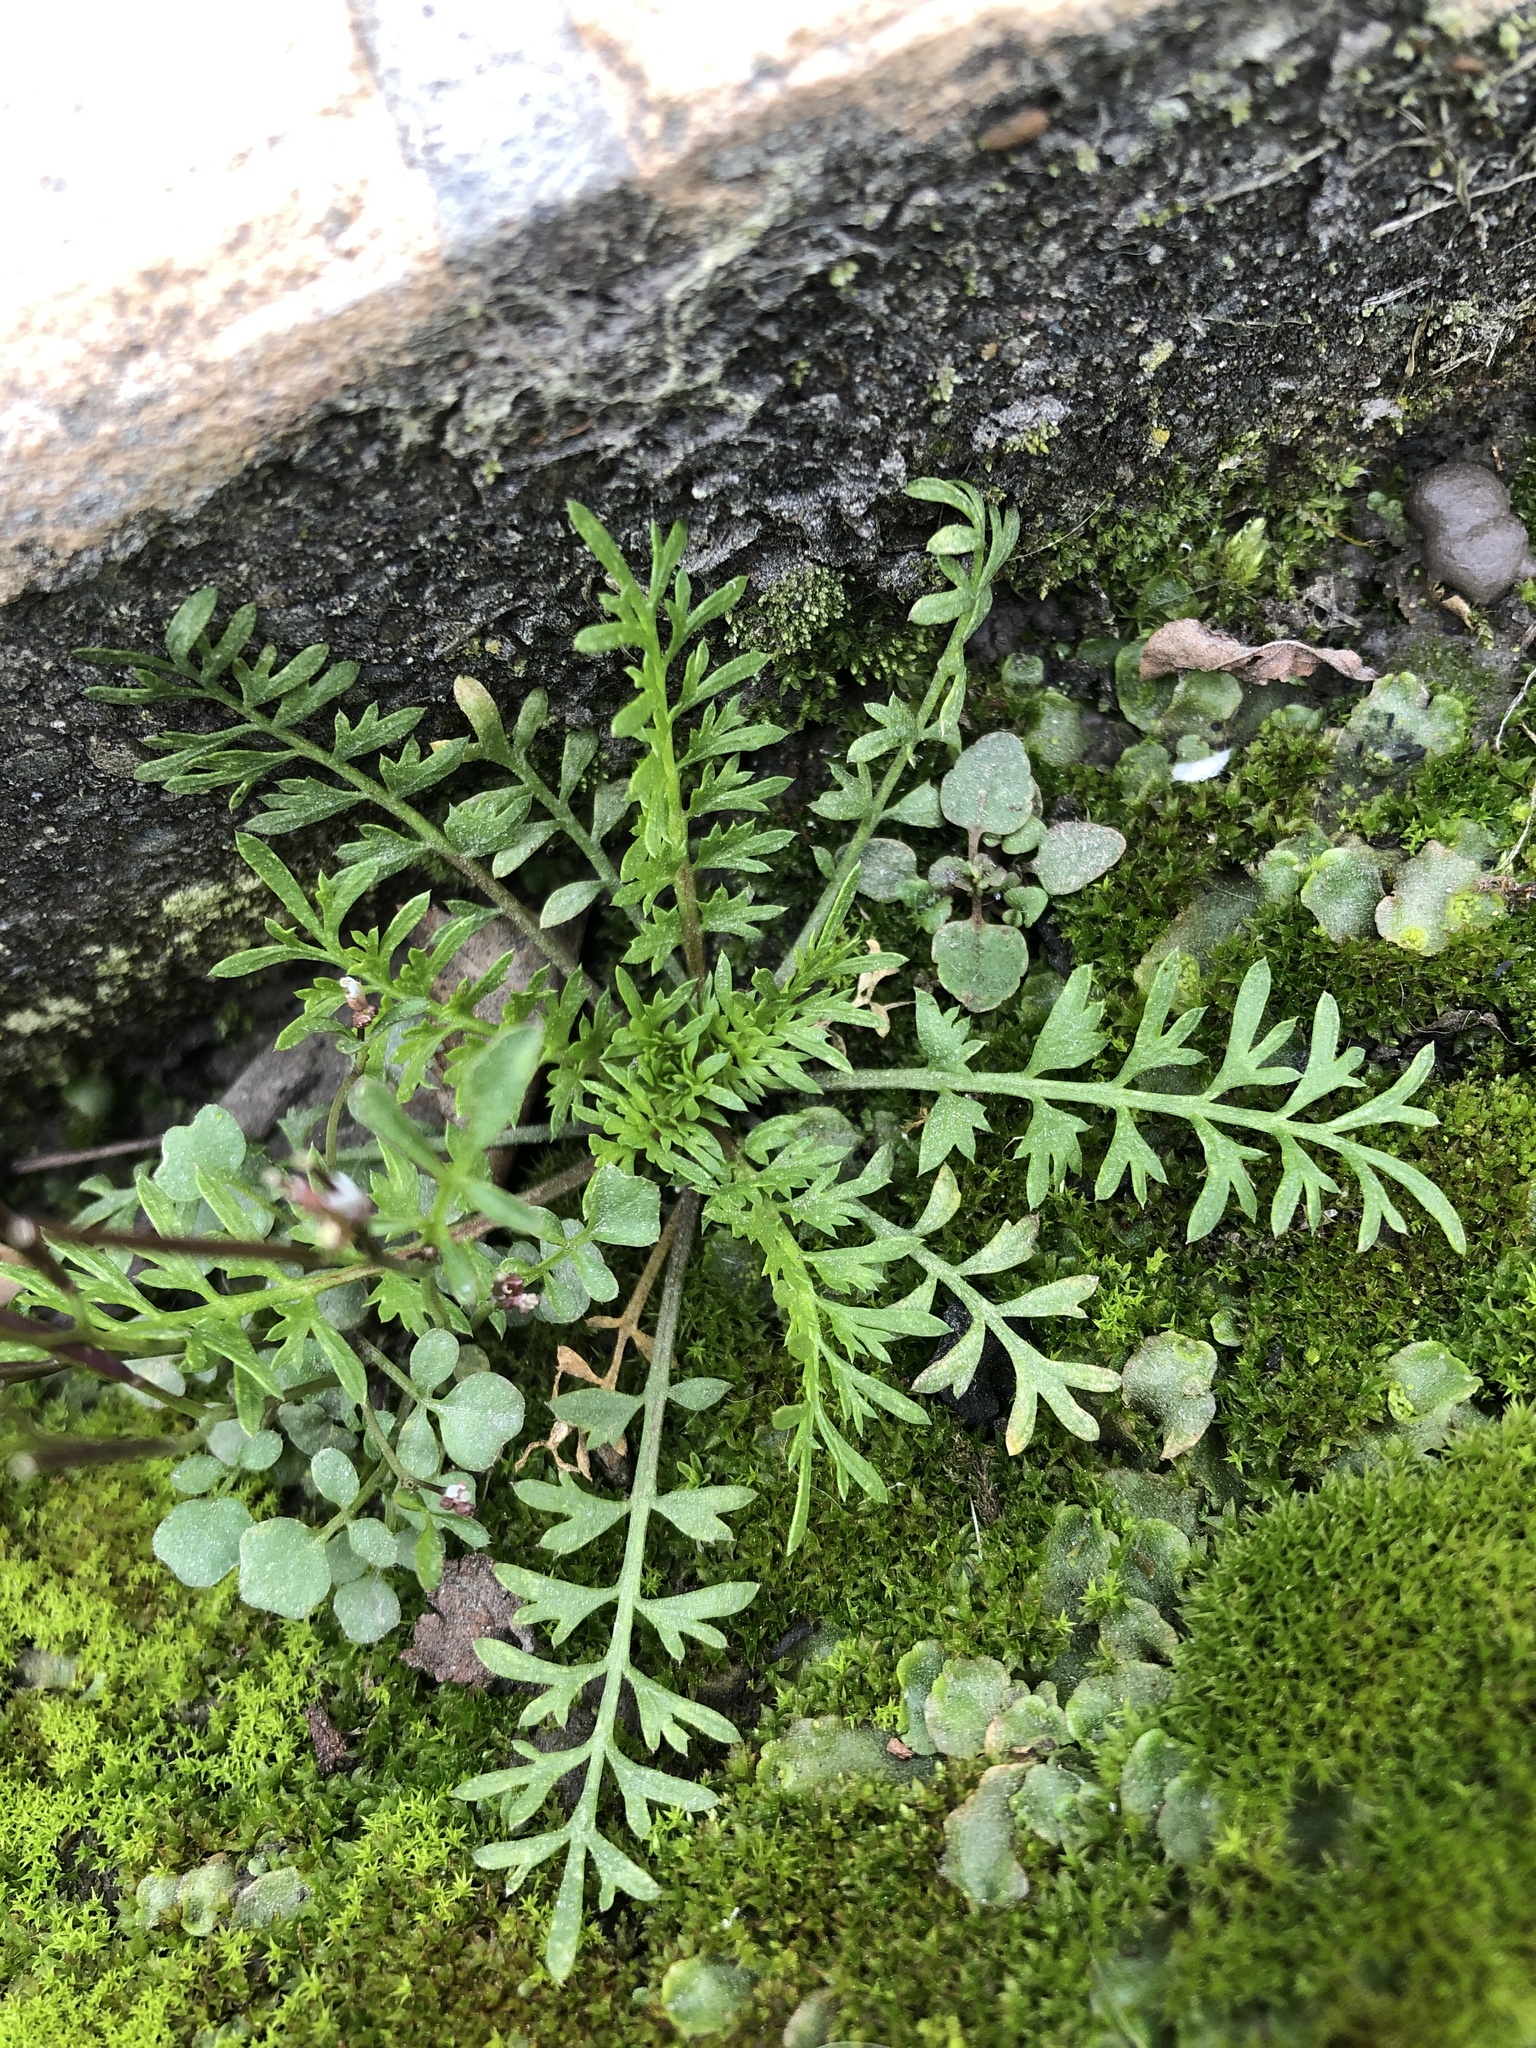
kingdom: Plantae
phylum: Tracheophyta
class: Magnoliopsida
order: Brassicales
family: Brassicaceae
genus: Lepidium
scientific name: Lepidium didymum
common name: Lesser swinecress
